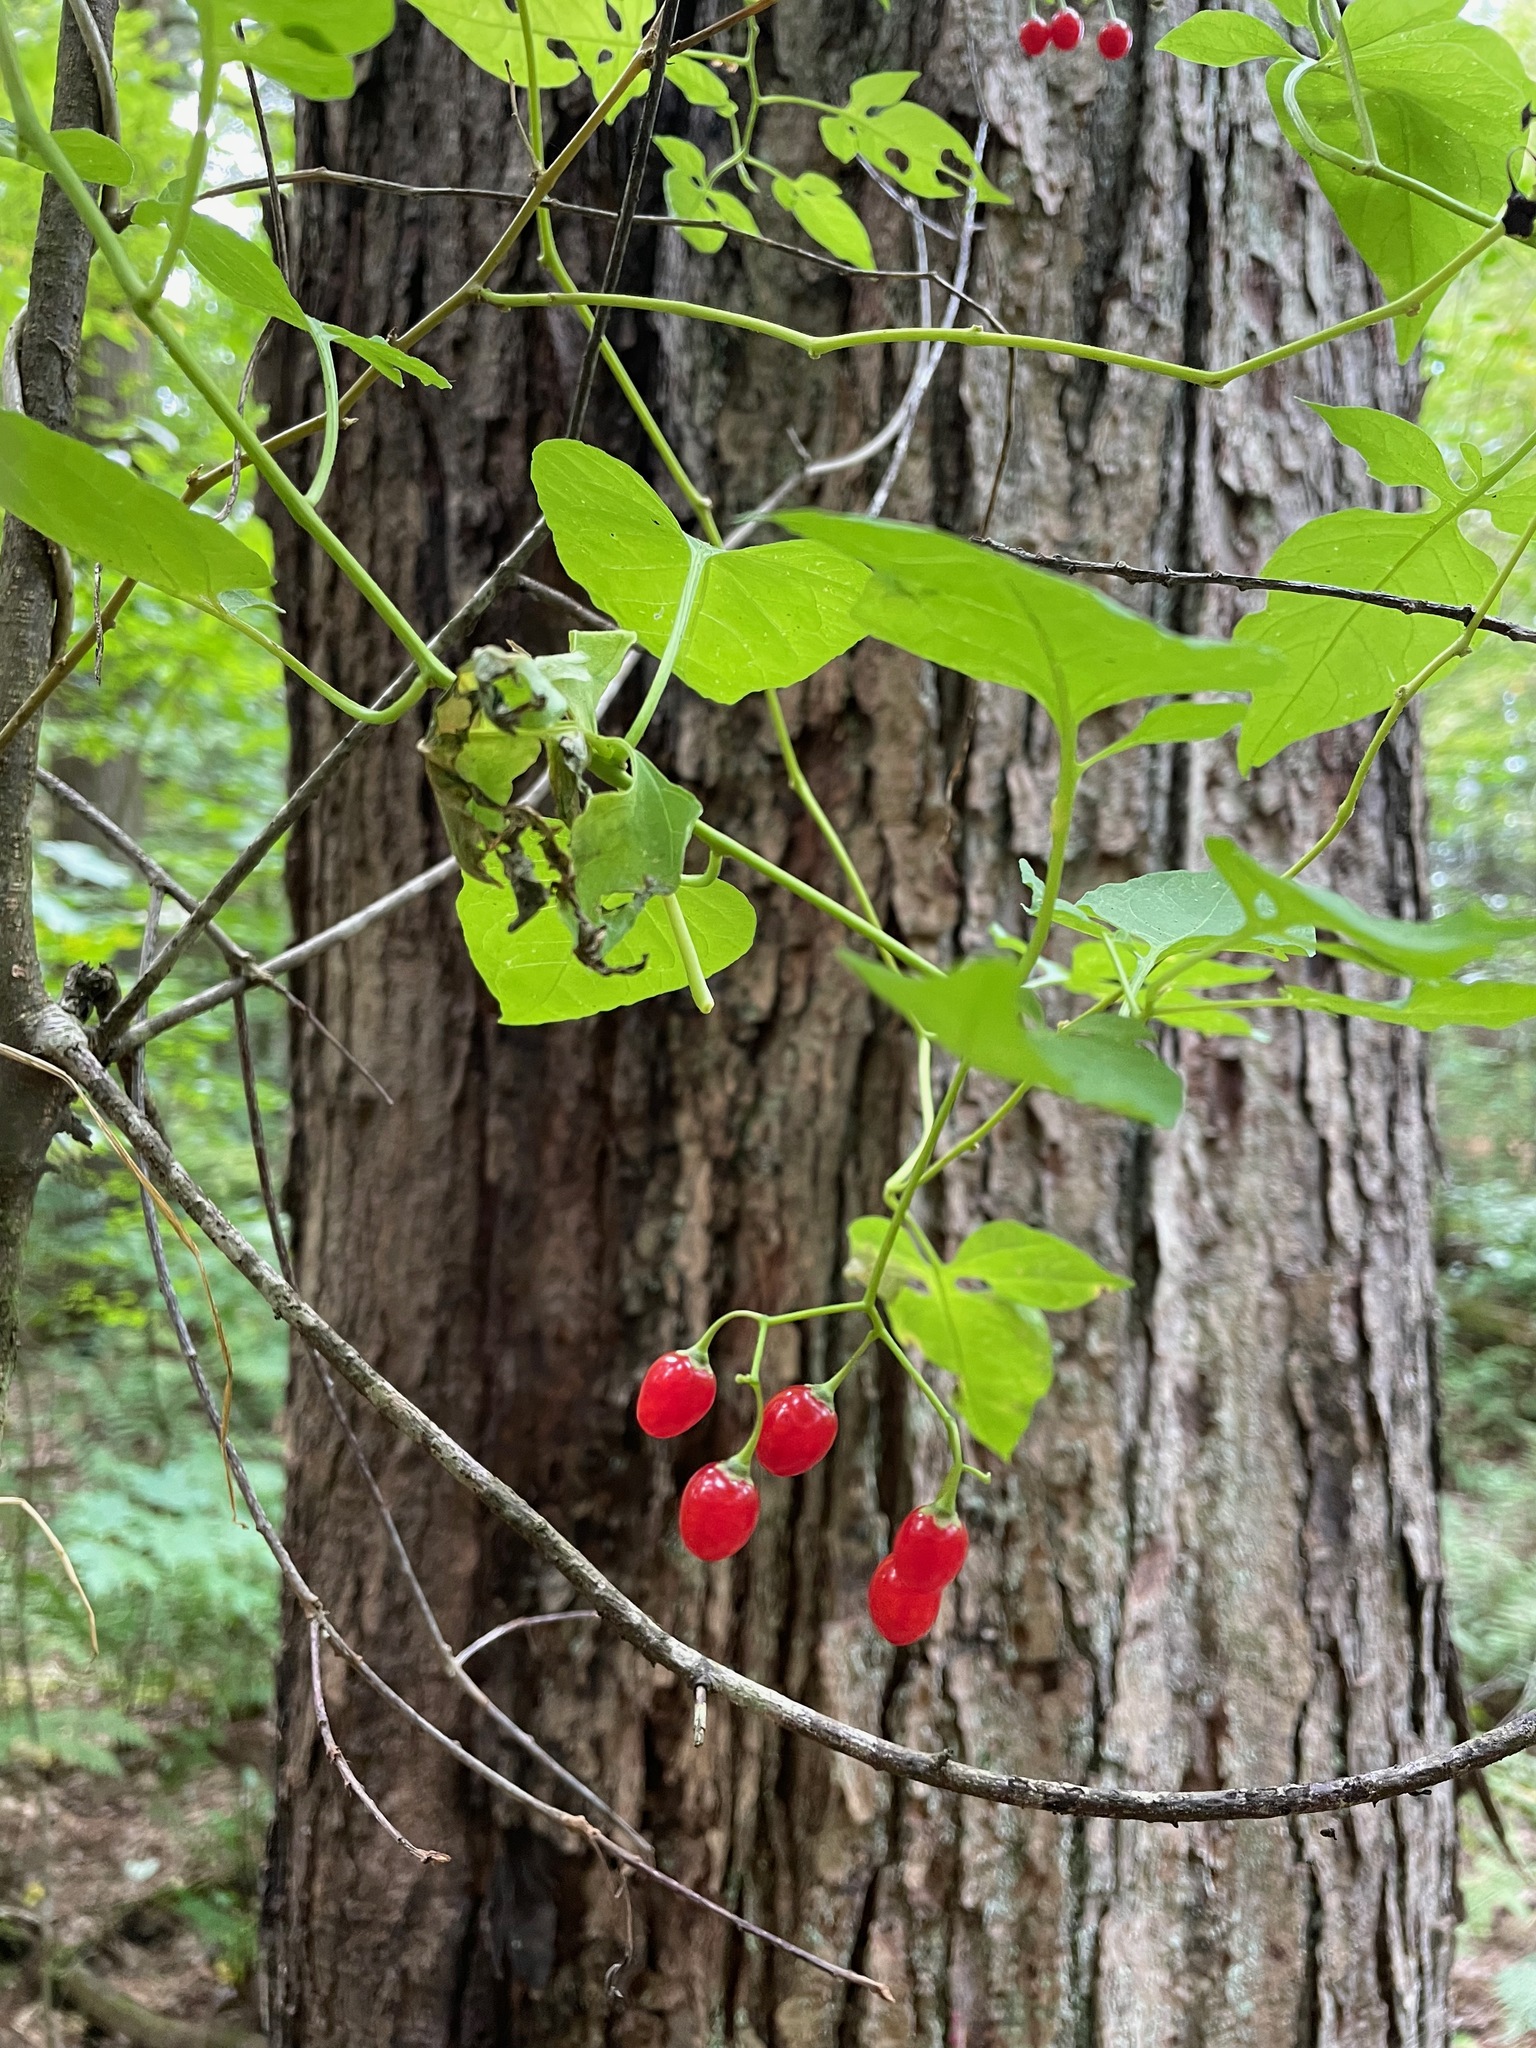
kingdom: Plantae
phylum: Tracheophyta
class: Magnoliopsida
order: Solanales
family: Solanaceae
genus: Solanum
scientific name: Solanum dulcamara
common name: Climbing nightshade
